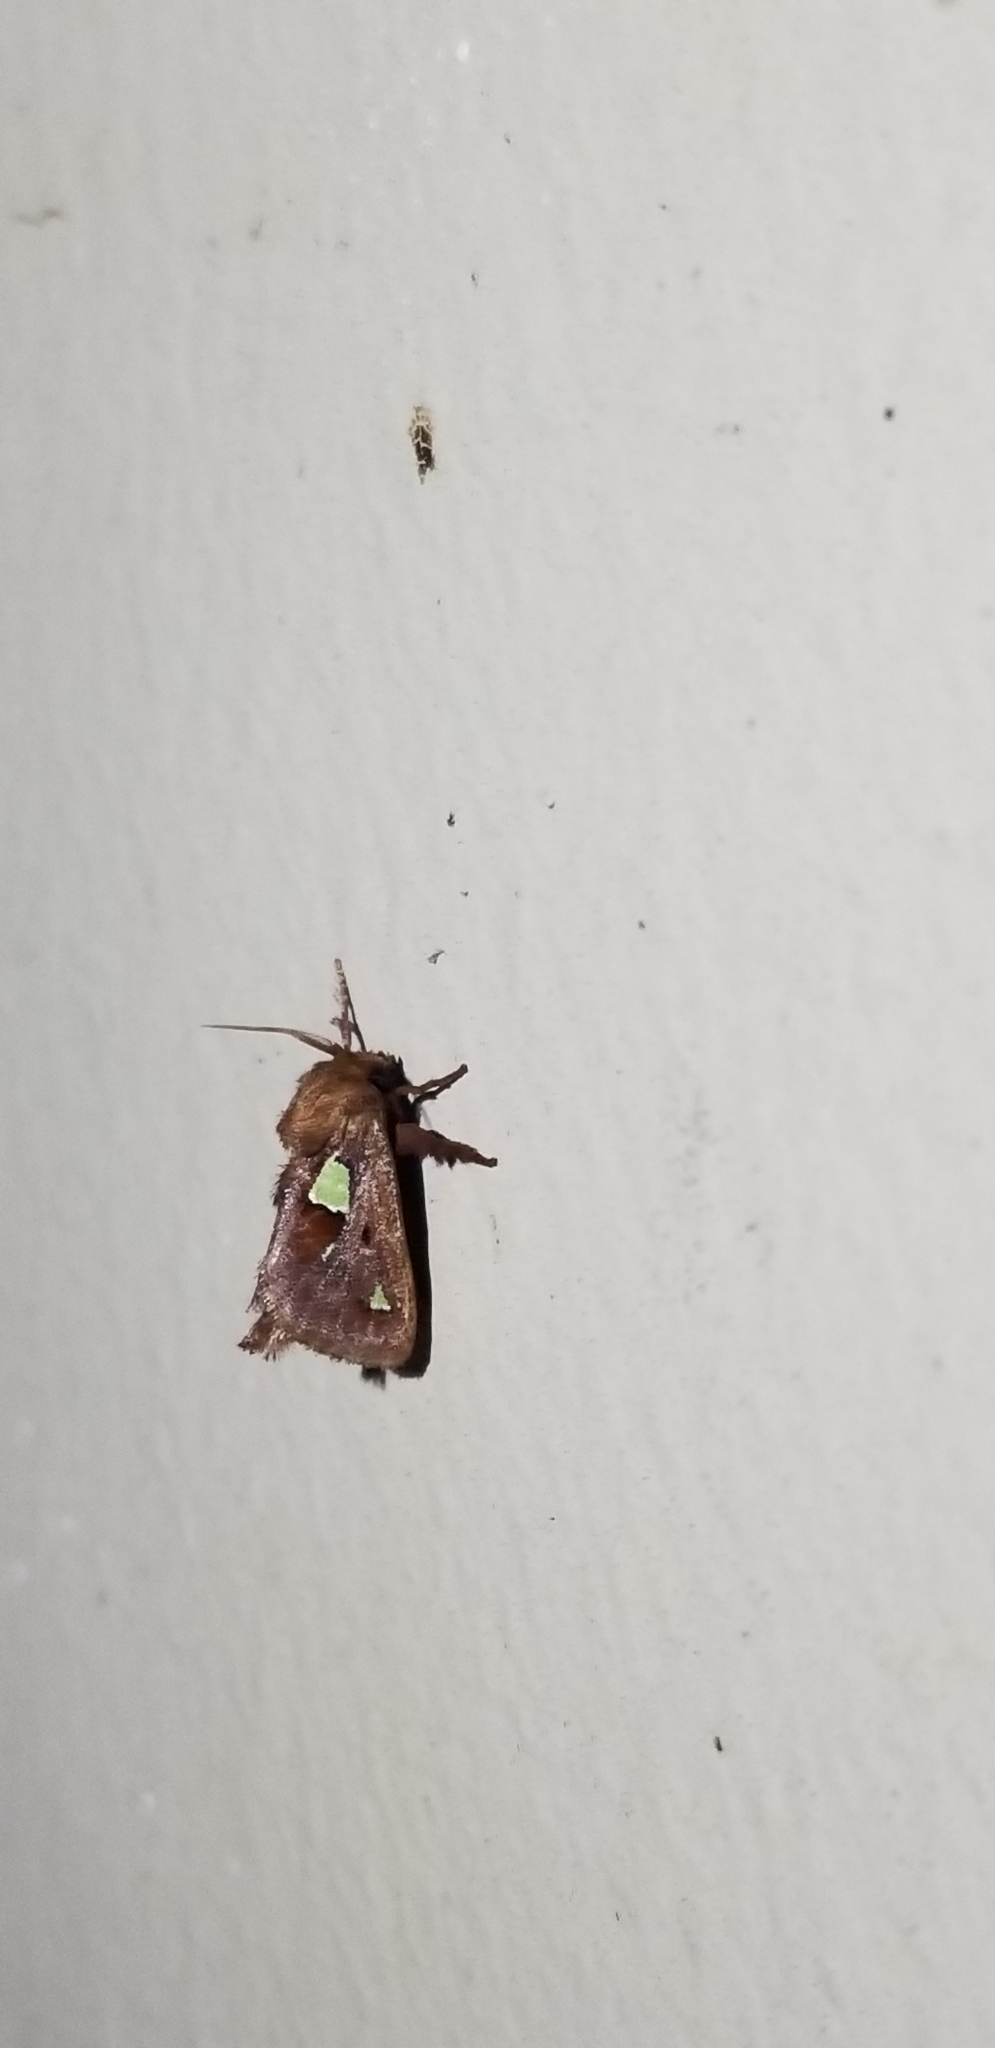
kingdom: Animalia
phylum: Arthropoda
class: Insecta
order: Lepidoptera
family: Limacodidae
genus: Euclea
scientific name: Euclea delphinii
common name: Spiny oak-slug moth
